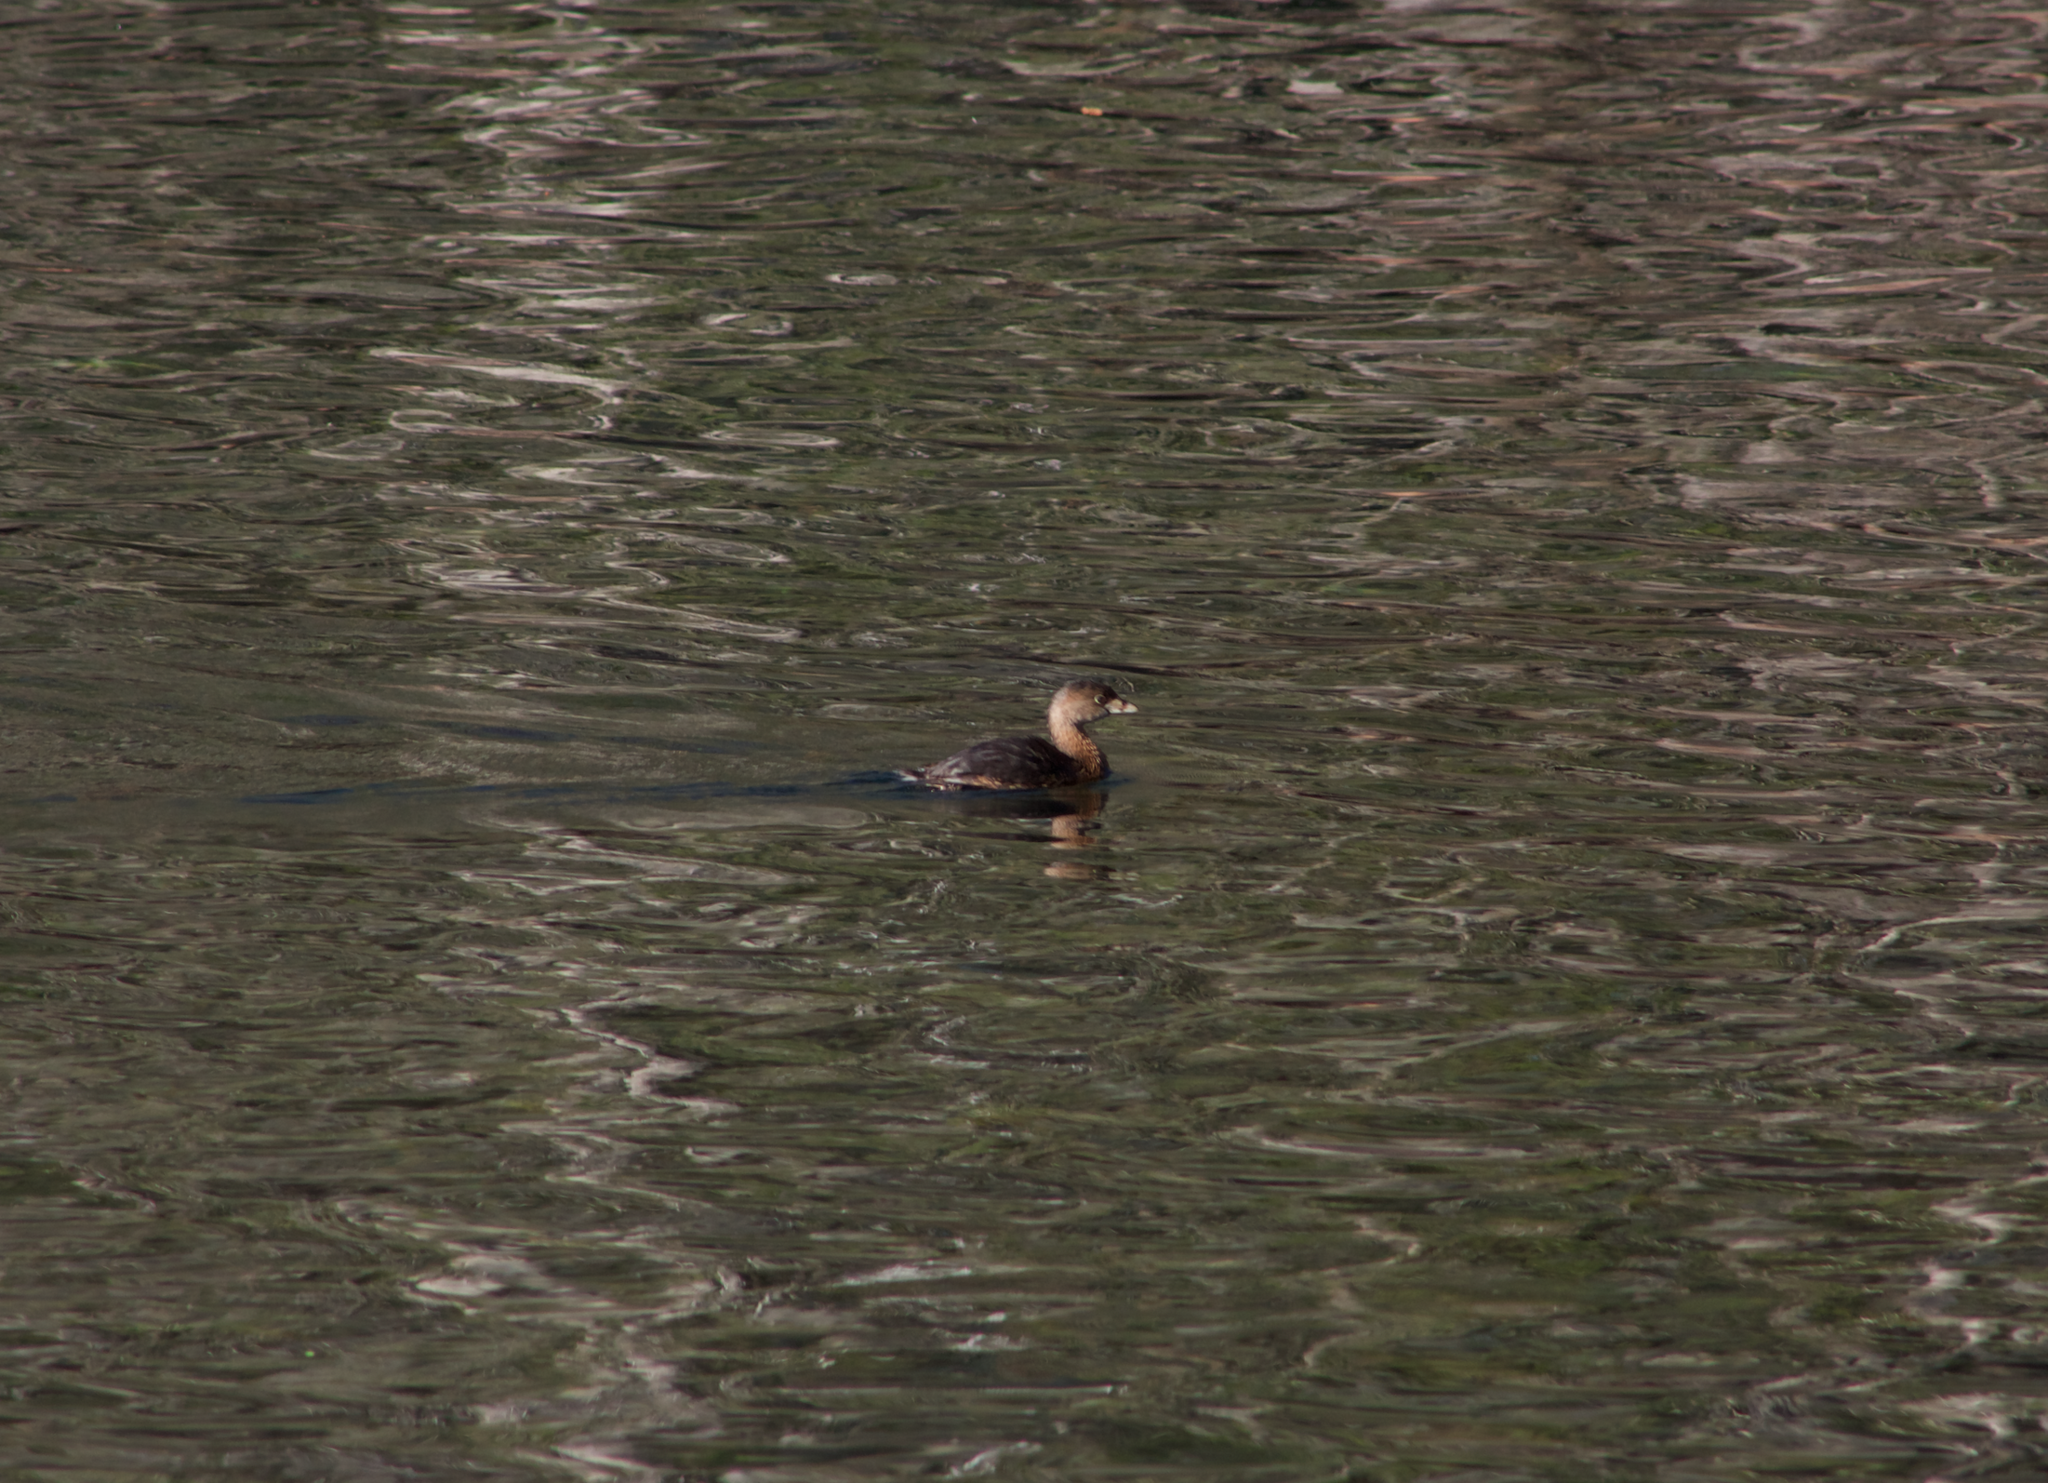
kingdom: Animalia
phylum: Chordata
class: Aves
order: Podicipediformes
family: Podicipedidae
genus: Podilymbus
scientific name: Podilymbus podiceps
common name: Pied-billed grebe
